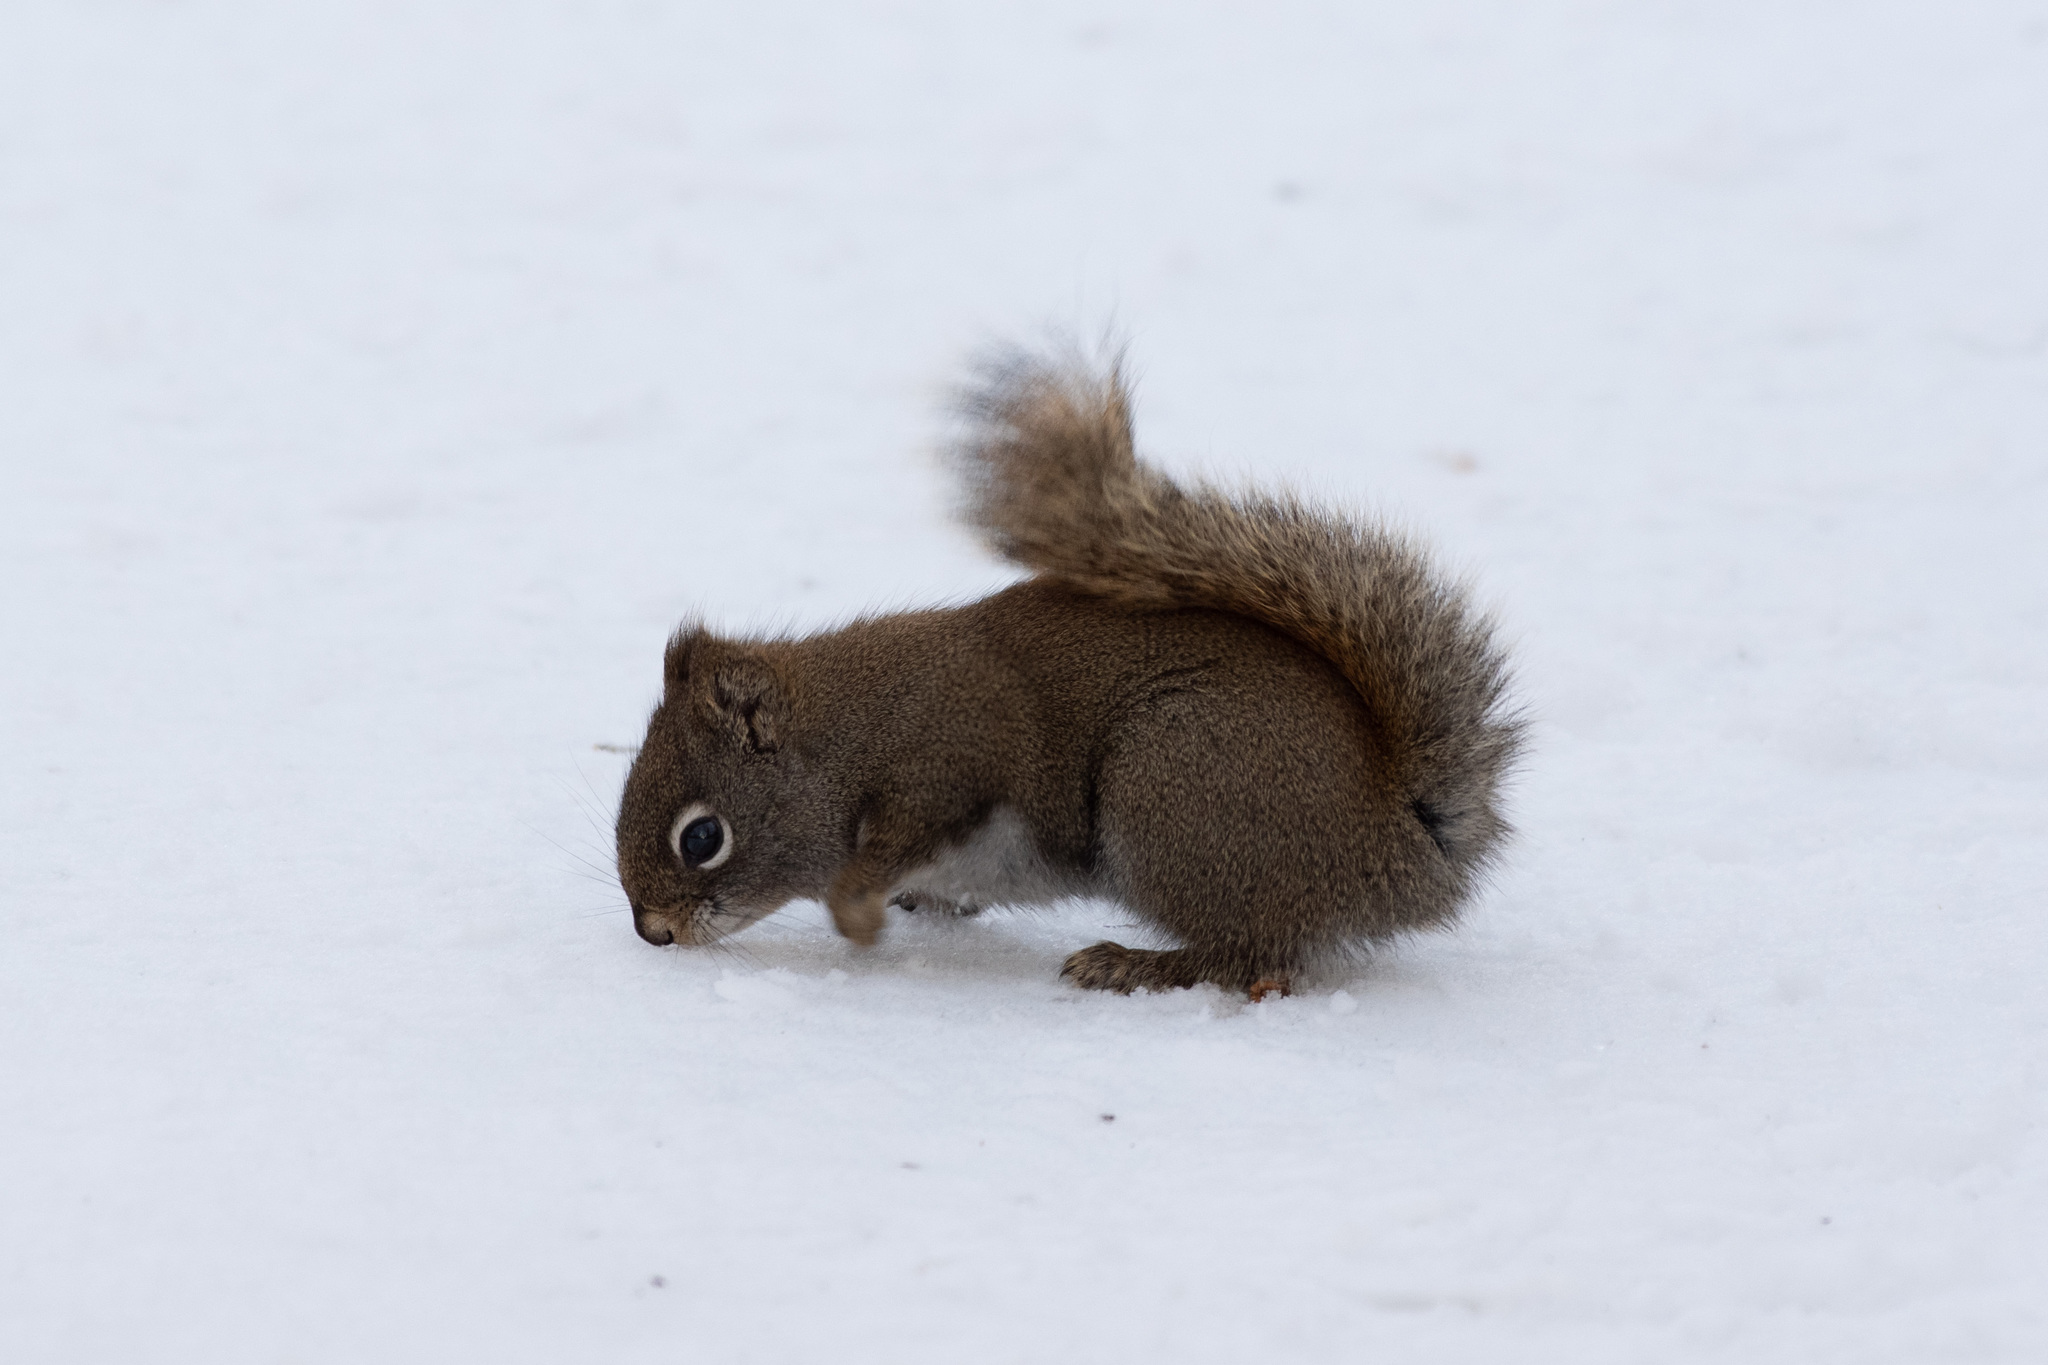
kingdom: Animalia
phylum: Chordata
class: Mammalia
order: Rodentia
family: Sciuridae
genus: Tamiasciurus
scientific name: Tamiasciurus hudsonicus
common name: Red squirrel
